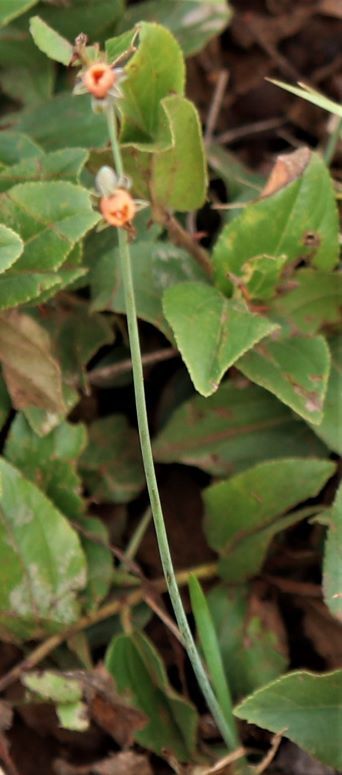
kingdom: Plantae
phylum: Tracheophyta
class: Liliopsida
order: Asparagales
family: Amaryllidaceae
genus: Tulbaghia
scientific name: Tulbaghia acutiloba
